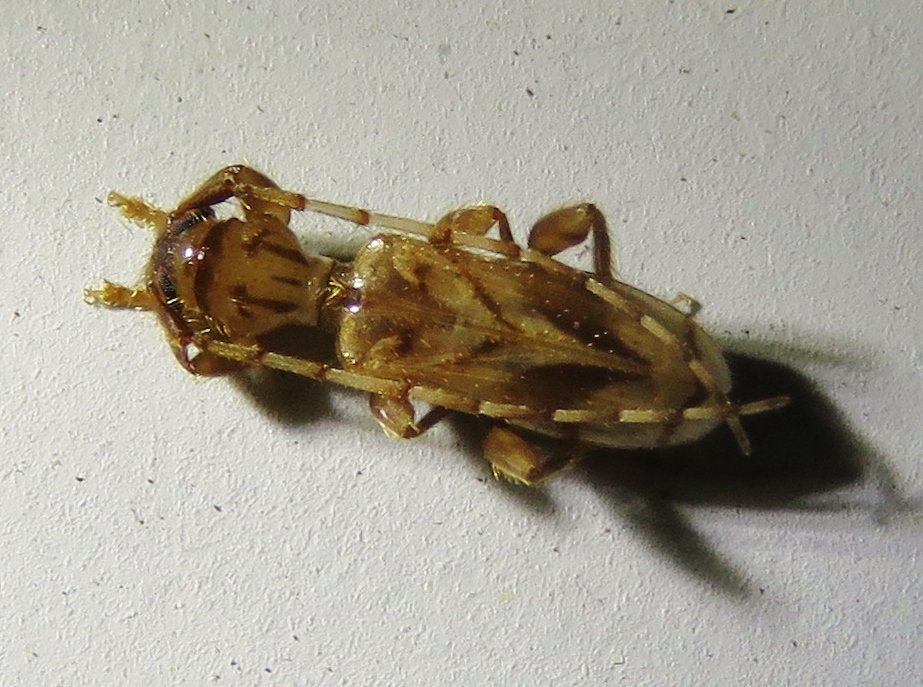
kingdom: Animalia
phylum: Arthropoda
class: Insecta
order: Coleoptera
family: Cerambycidae
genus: Obrium
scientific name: Obrium maculatum
